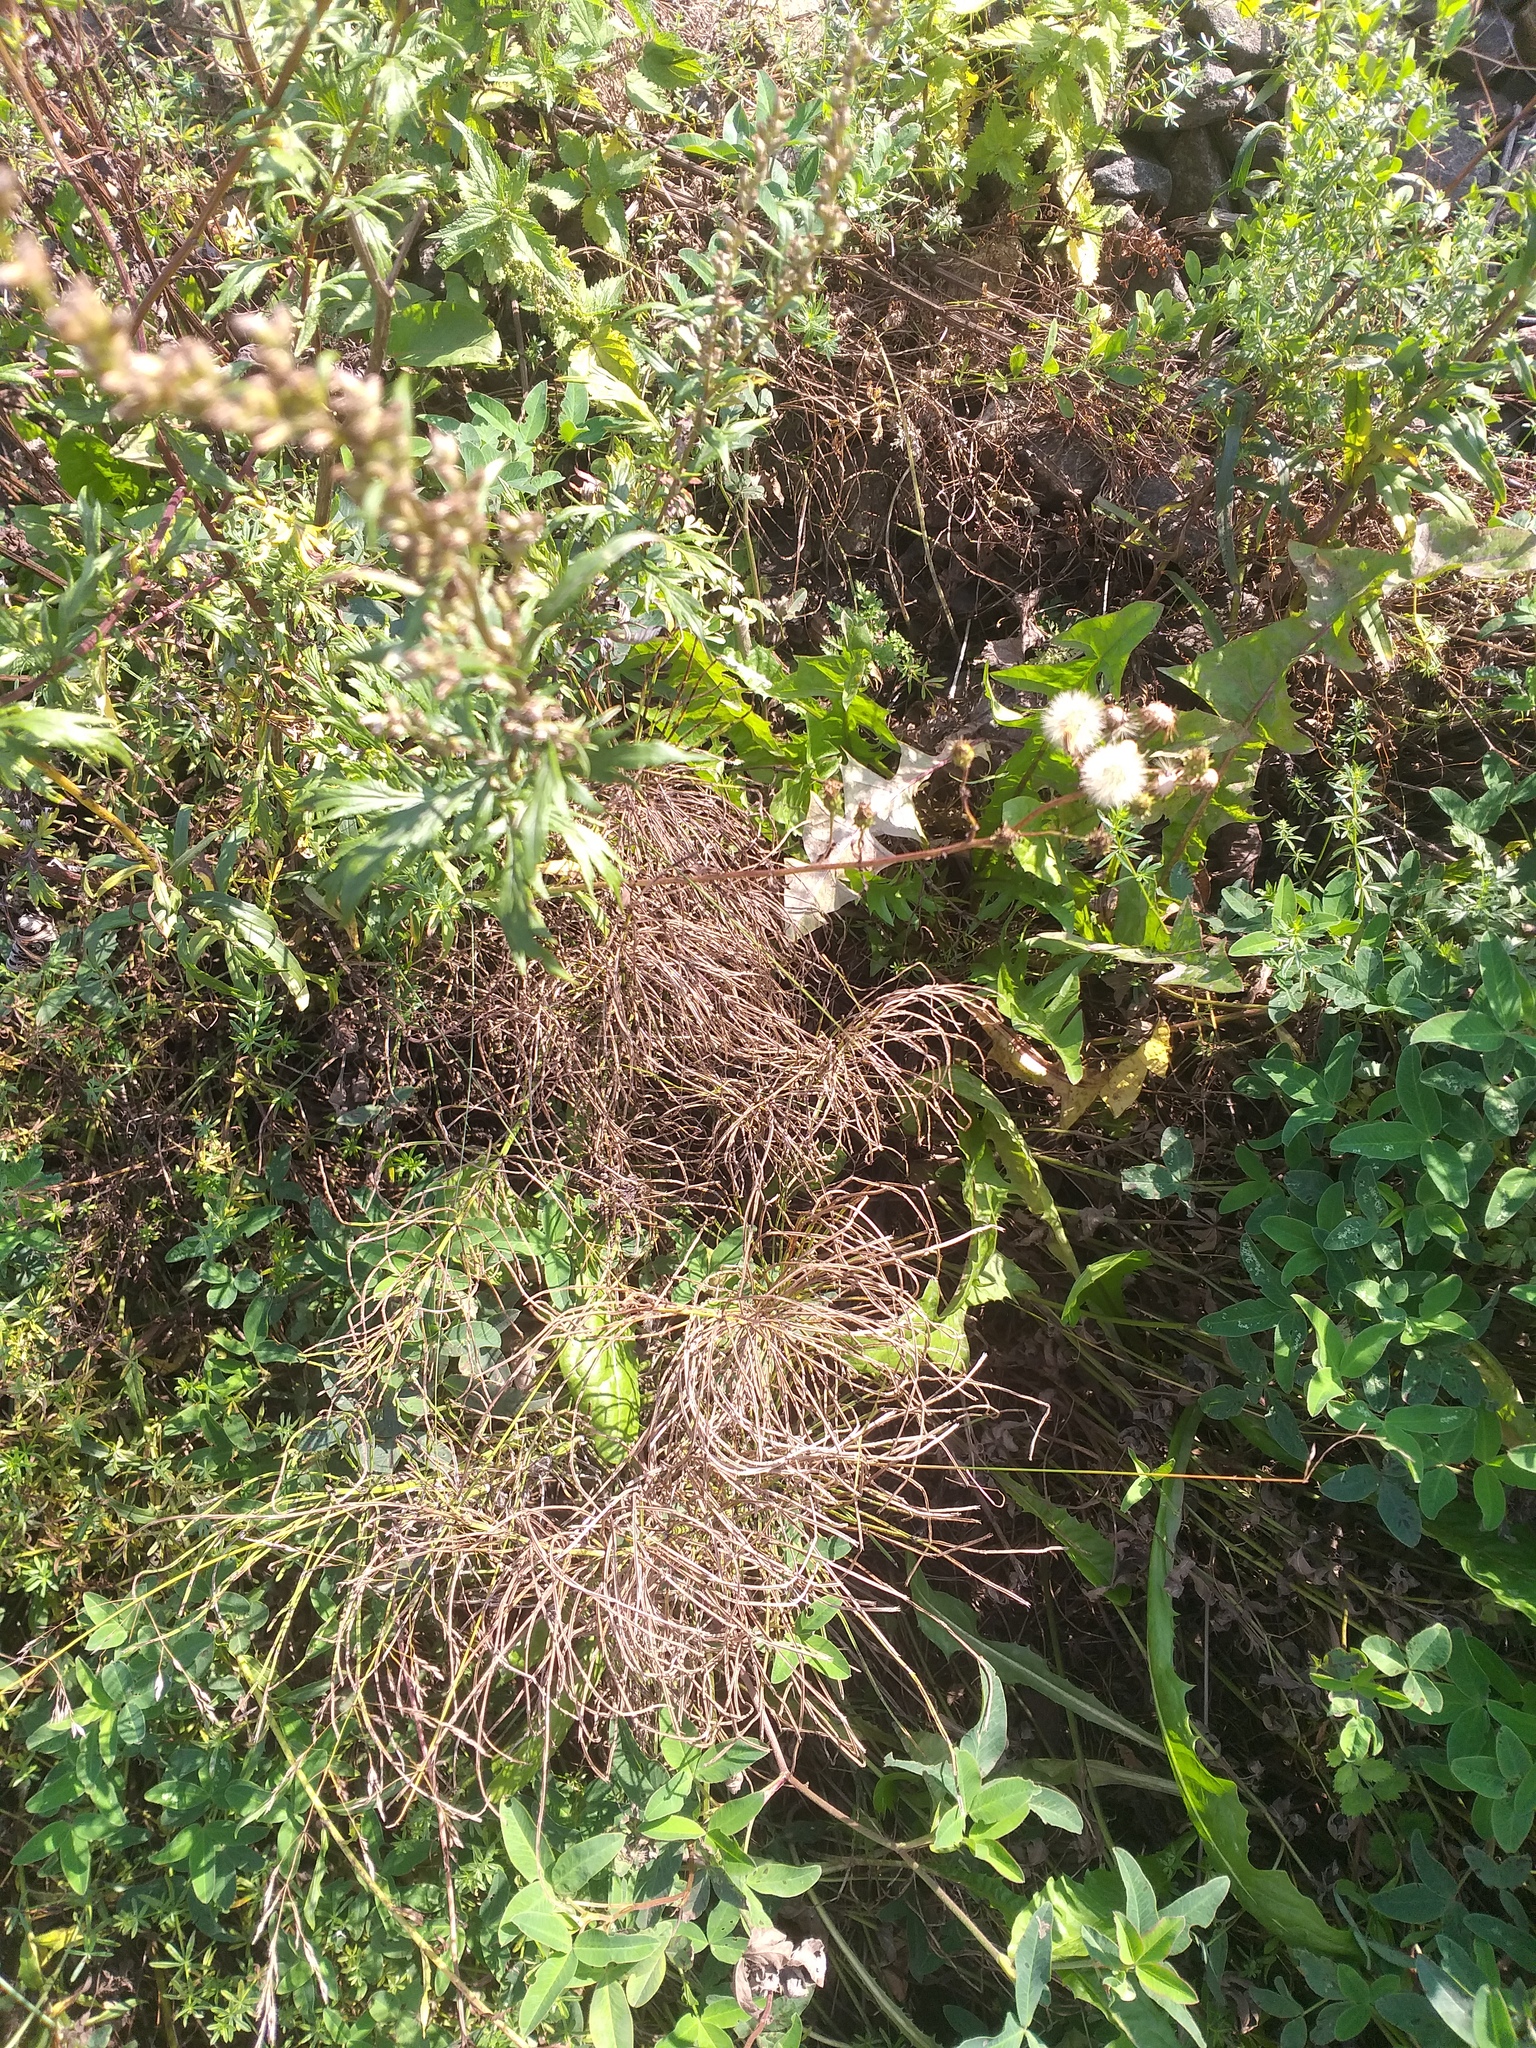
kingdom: Plantae
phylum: Tracheophyta
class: Polypodiopsida
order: Equisetales
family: Equisetaceae
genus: Equisetum
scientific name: Equisetum pratense
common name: Meadow horsetail
